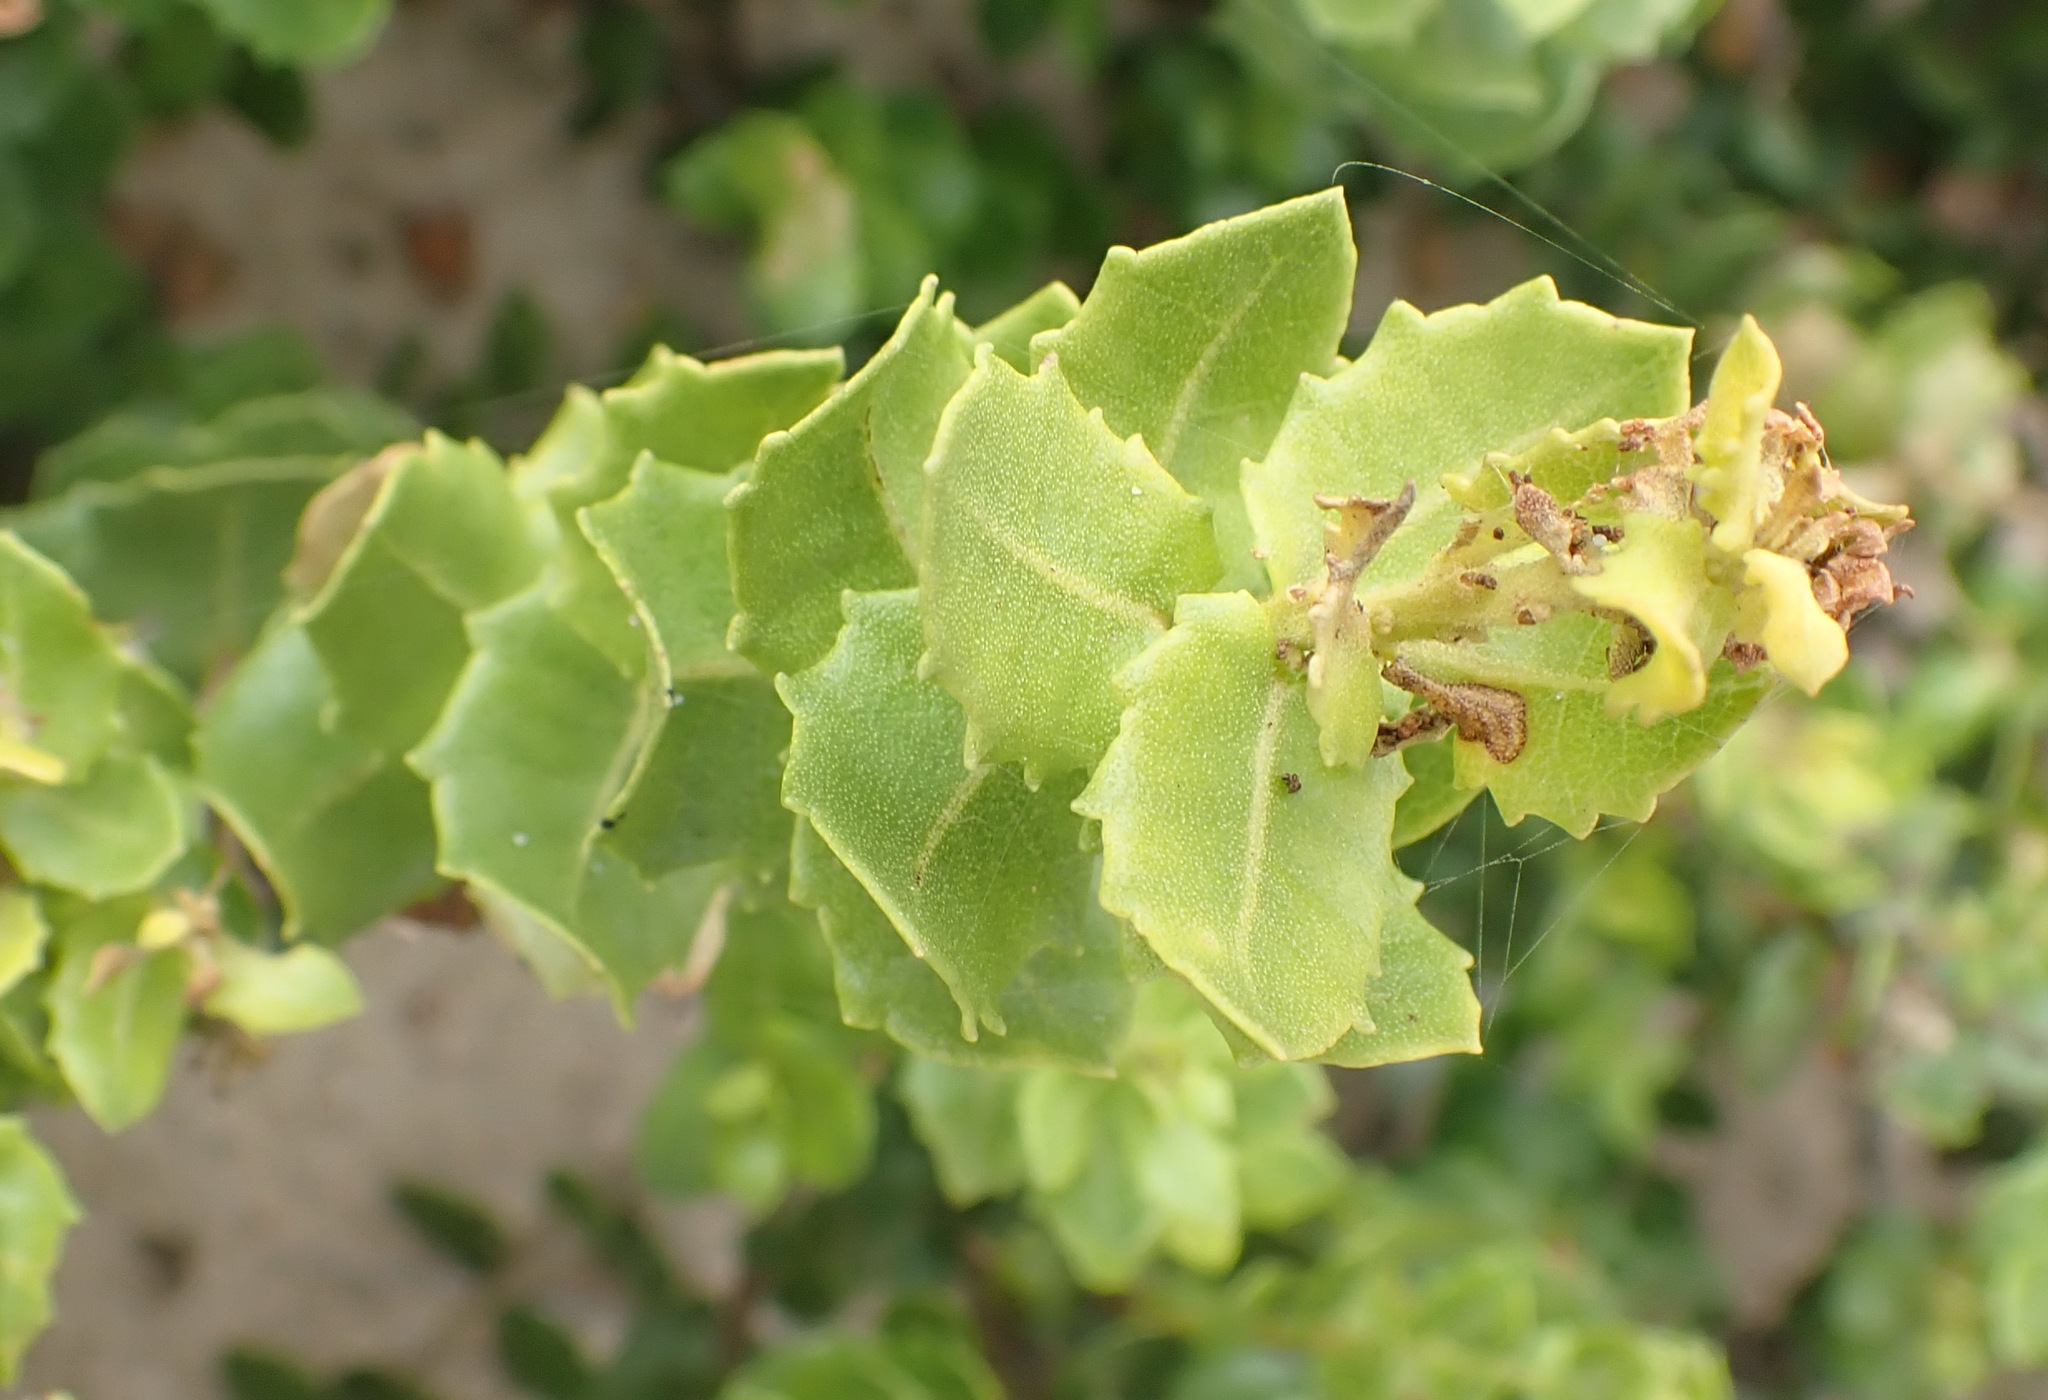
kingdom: Plantae
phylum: Tracheophyta
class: Magnoliopsida
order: Fagales
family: Myricaceae
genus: Morella
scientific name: Morella cordifolia
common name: Waxberry
